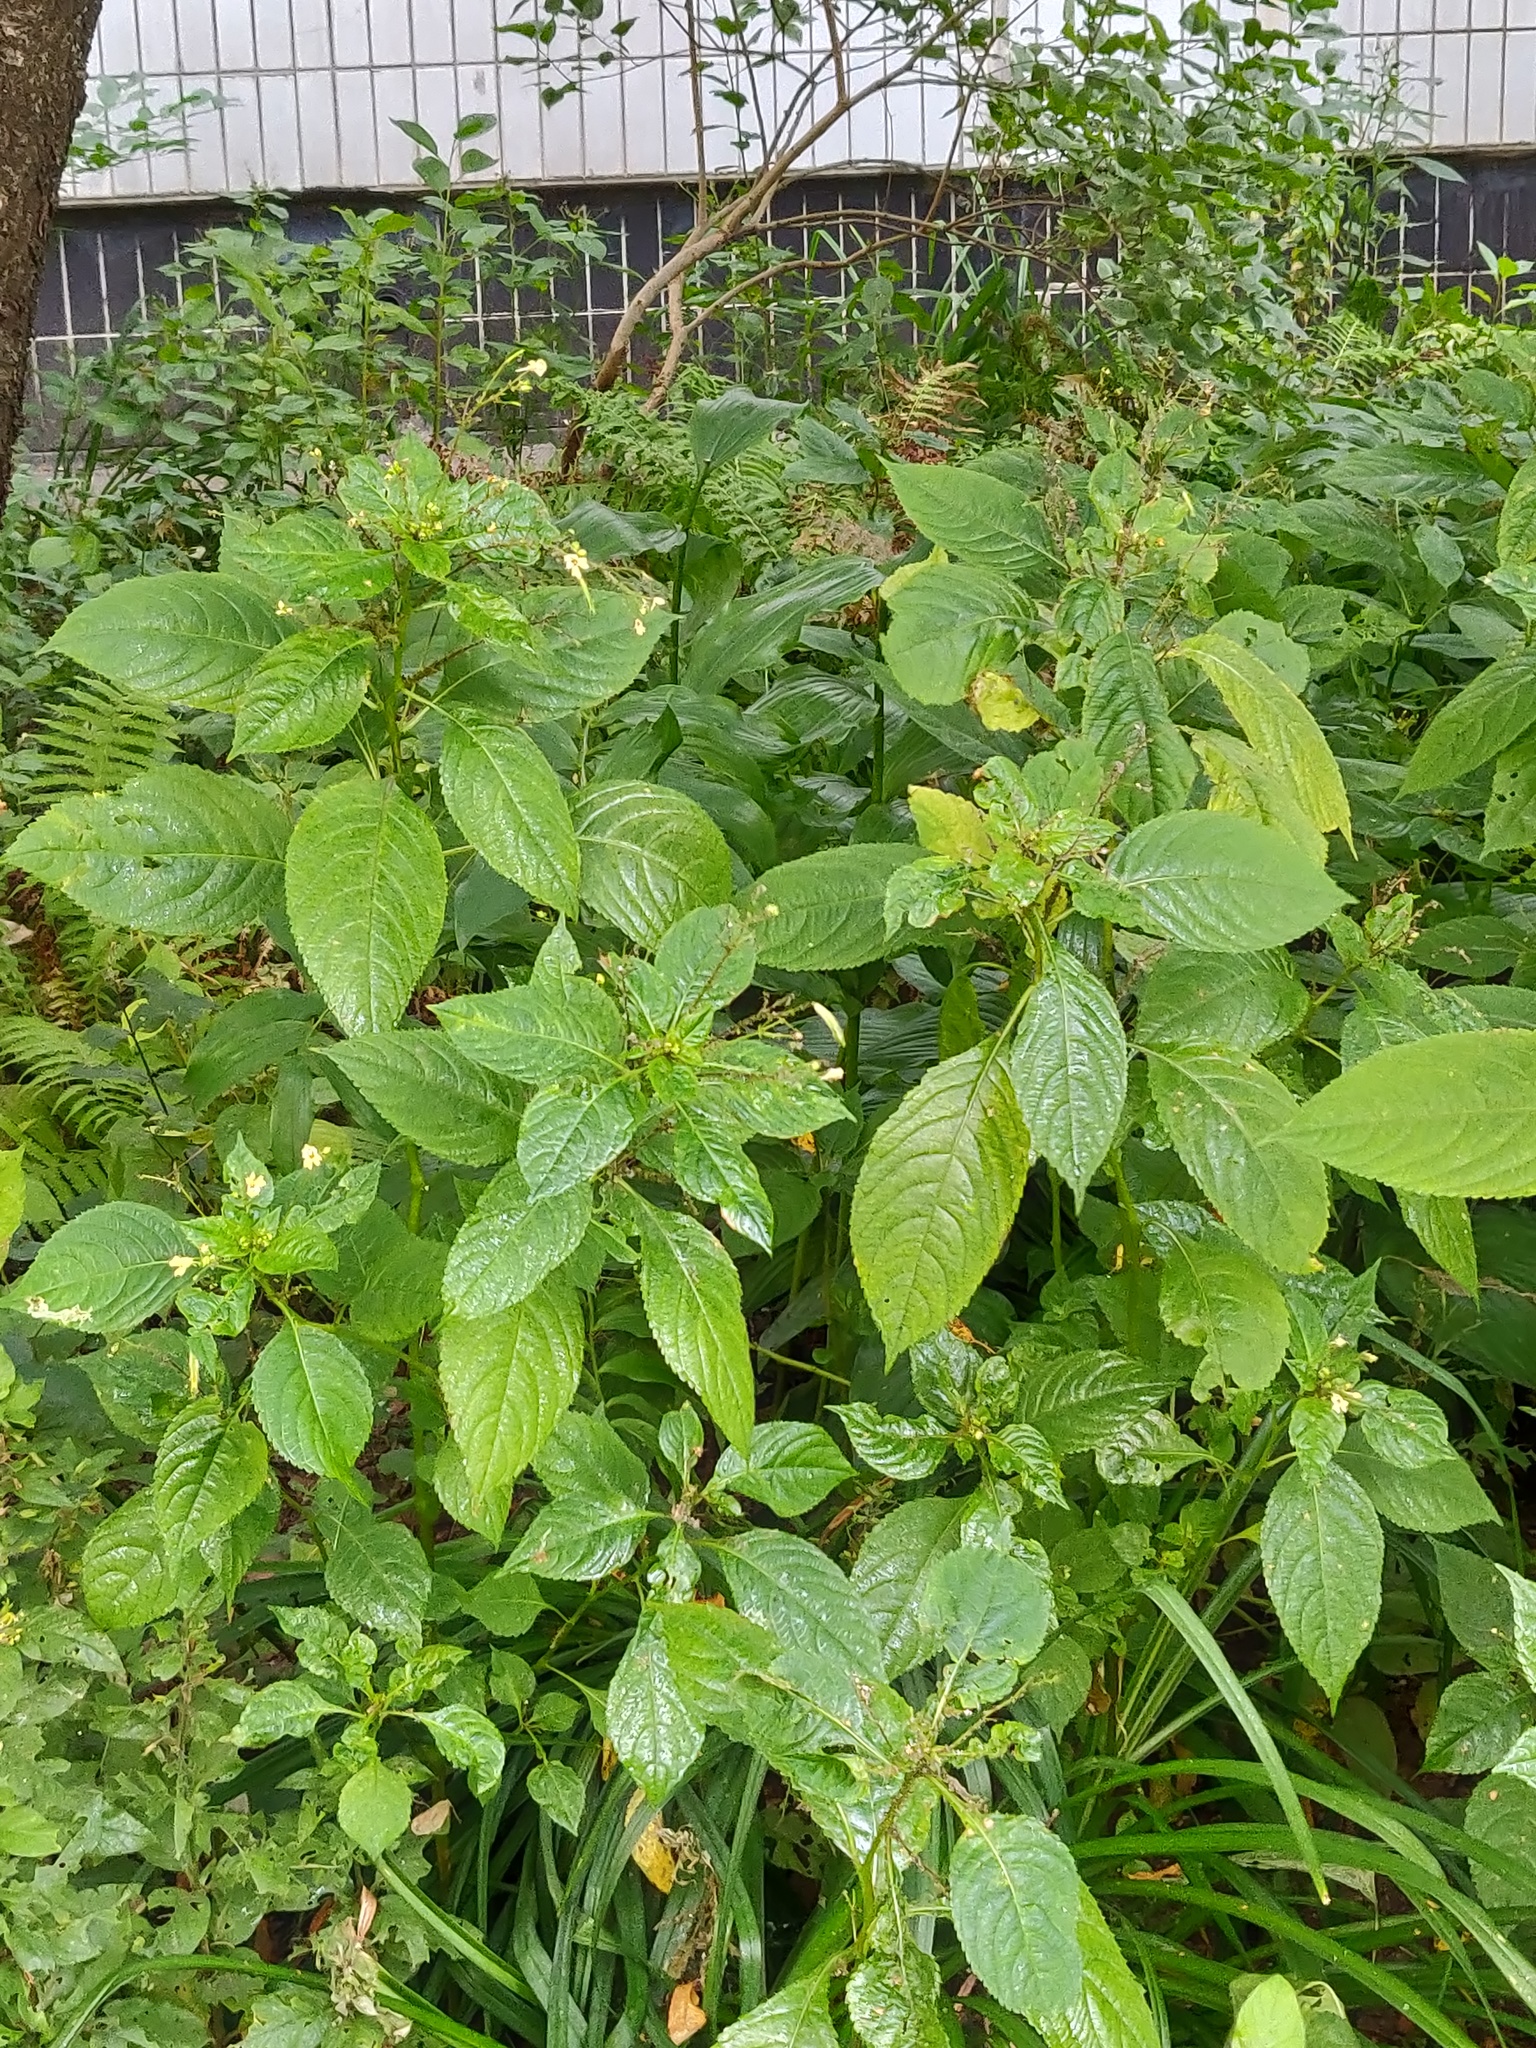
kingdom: Plantae
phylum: Tracheophyta
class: Magnoliopsida
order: Ericales
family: Balsaminaceae
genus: Impatiens
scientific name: Impatiens parviflora
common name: Small balsam
